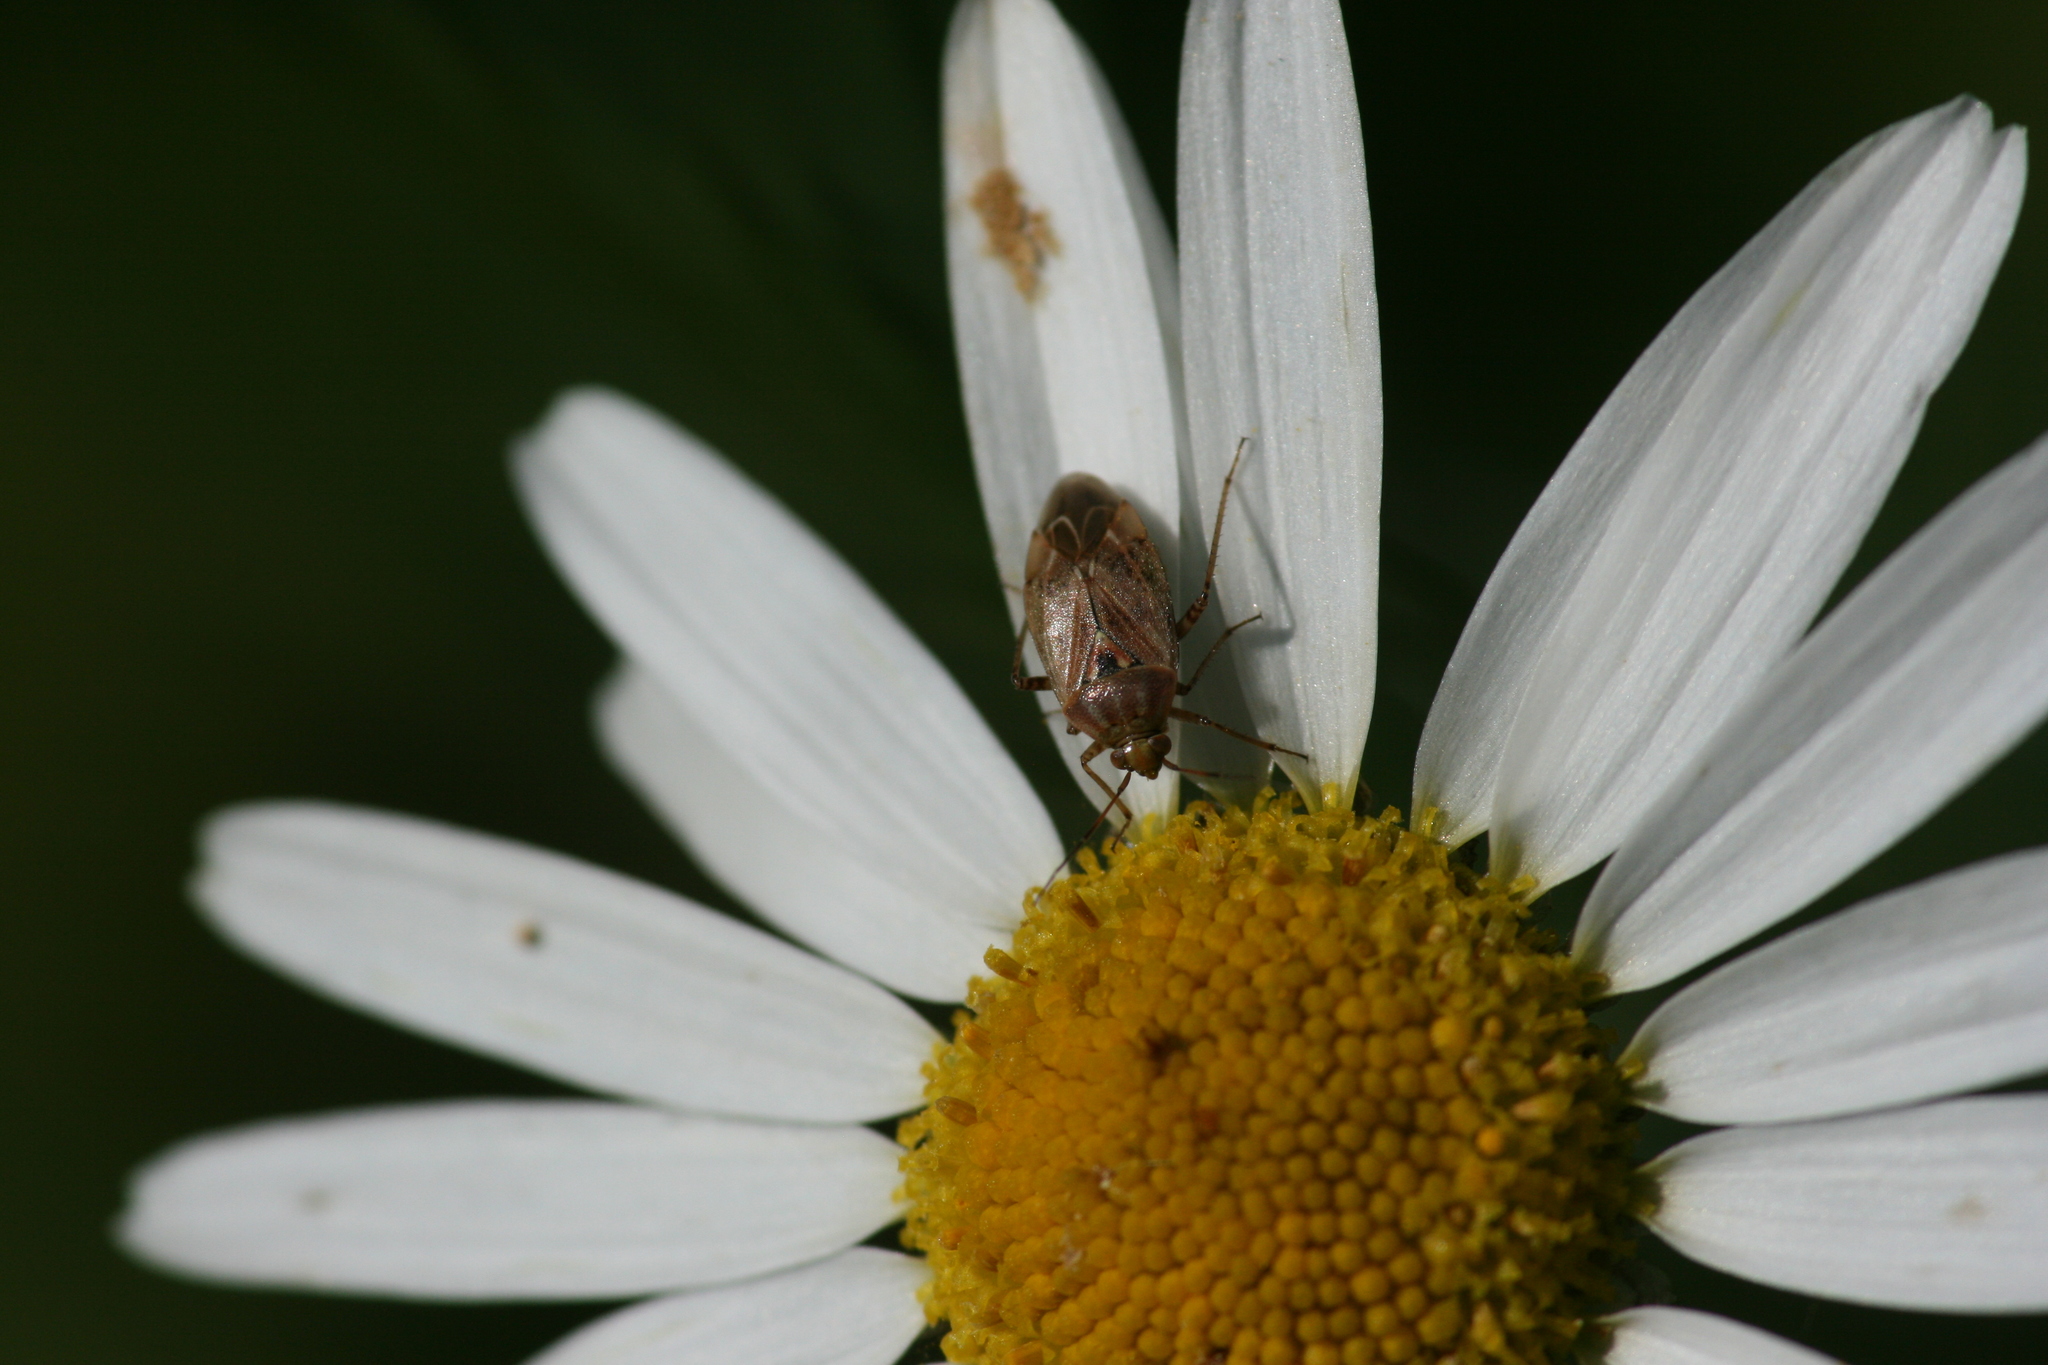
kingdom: Animalia
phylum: Arthropoda
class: Insecta
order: Hemiptera
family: Miridae
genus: Lygus
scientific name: Lygus rugulipennis
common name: European tarnished plant bug
